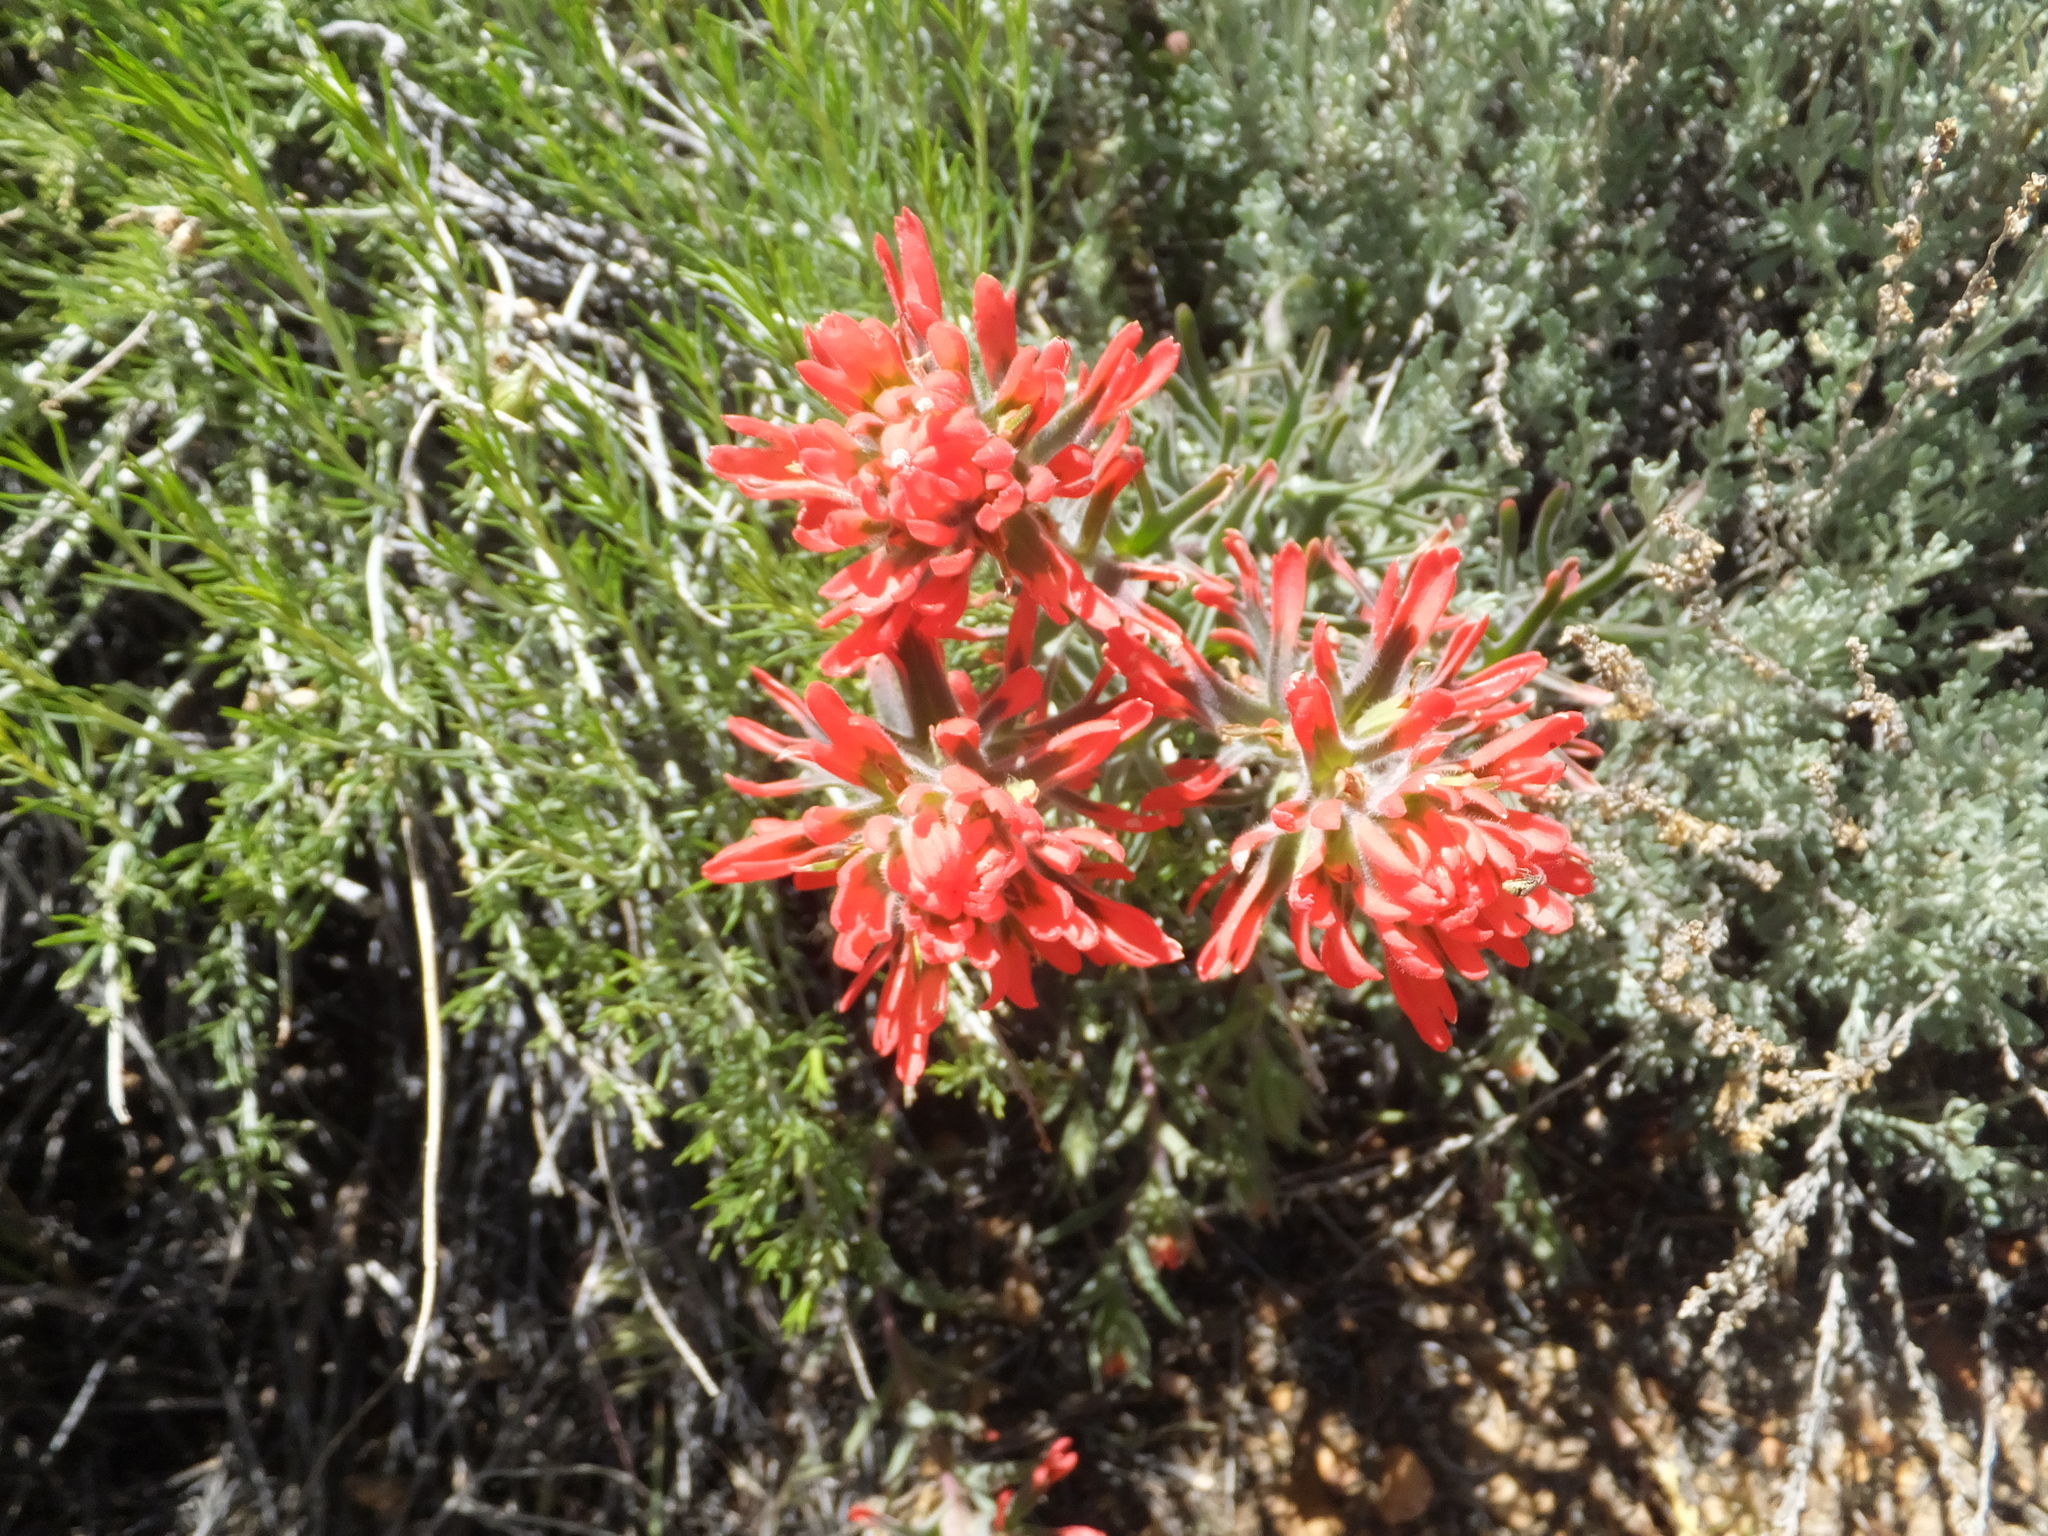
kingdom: Plantae
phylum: Tracheophyta
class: Magnoliopsida
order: Lamiales
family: Orobanchaceae
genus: Castilleja
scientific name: Castilleja chromosa
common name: Desert paintbrush
